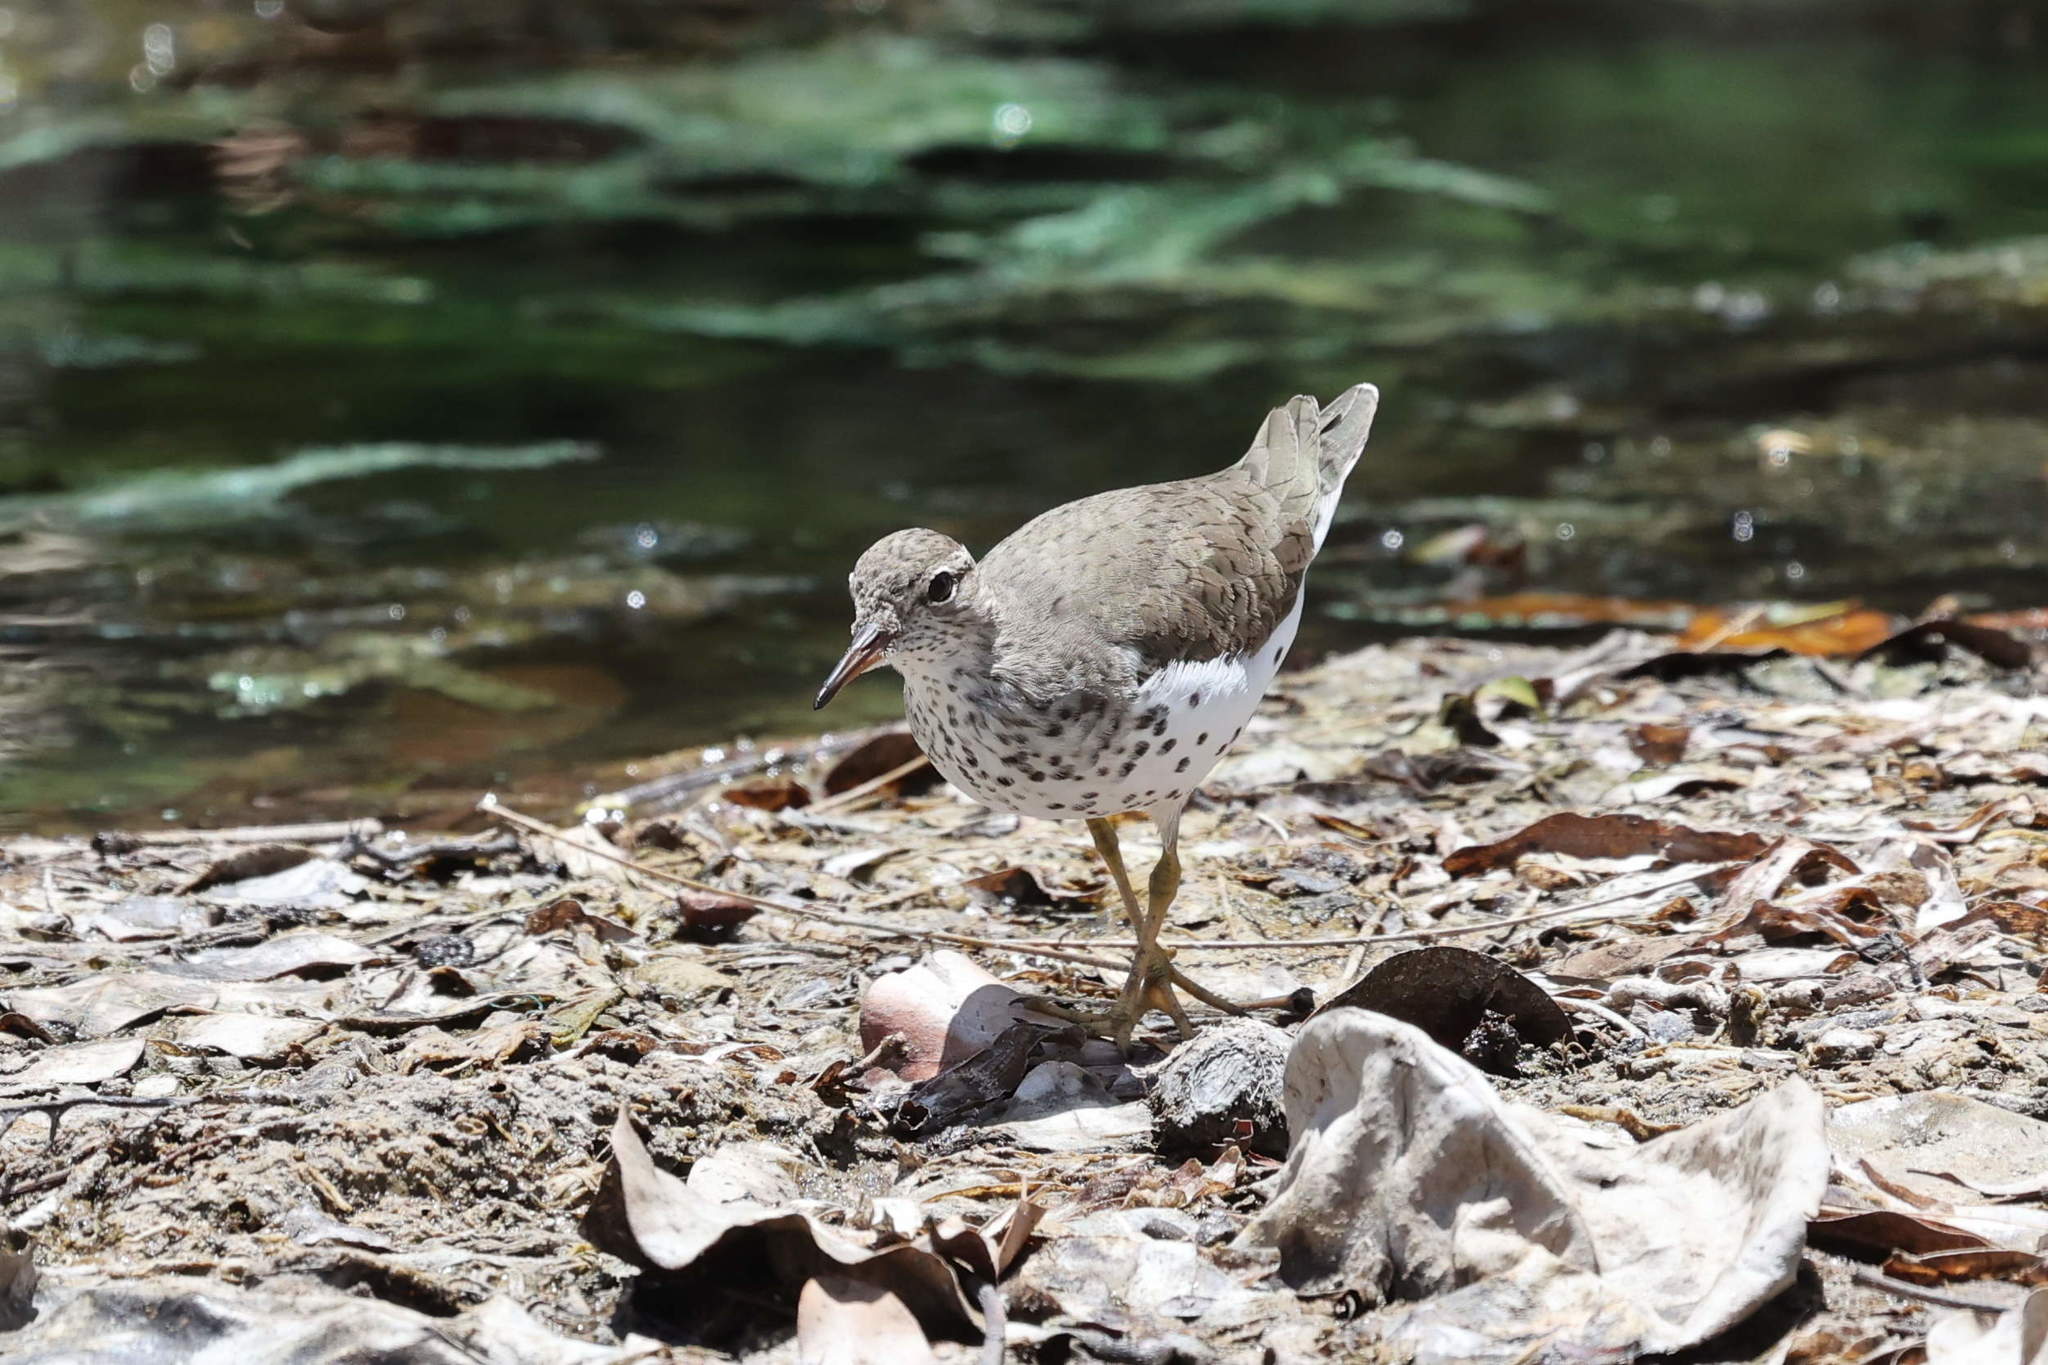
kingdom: Animalia
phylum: Chordata
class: Aves
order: Charadriiformes
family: Scolopacidae
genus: Actitis
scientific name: Actitis macularius
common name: Spotted sandpiper
